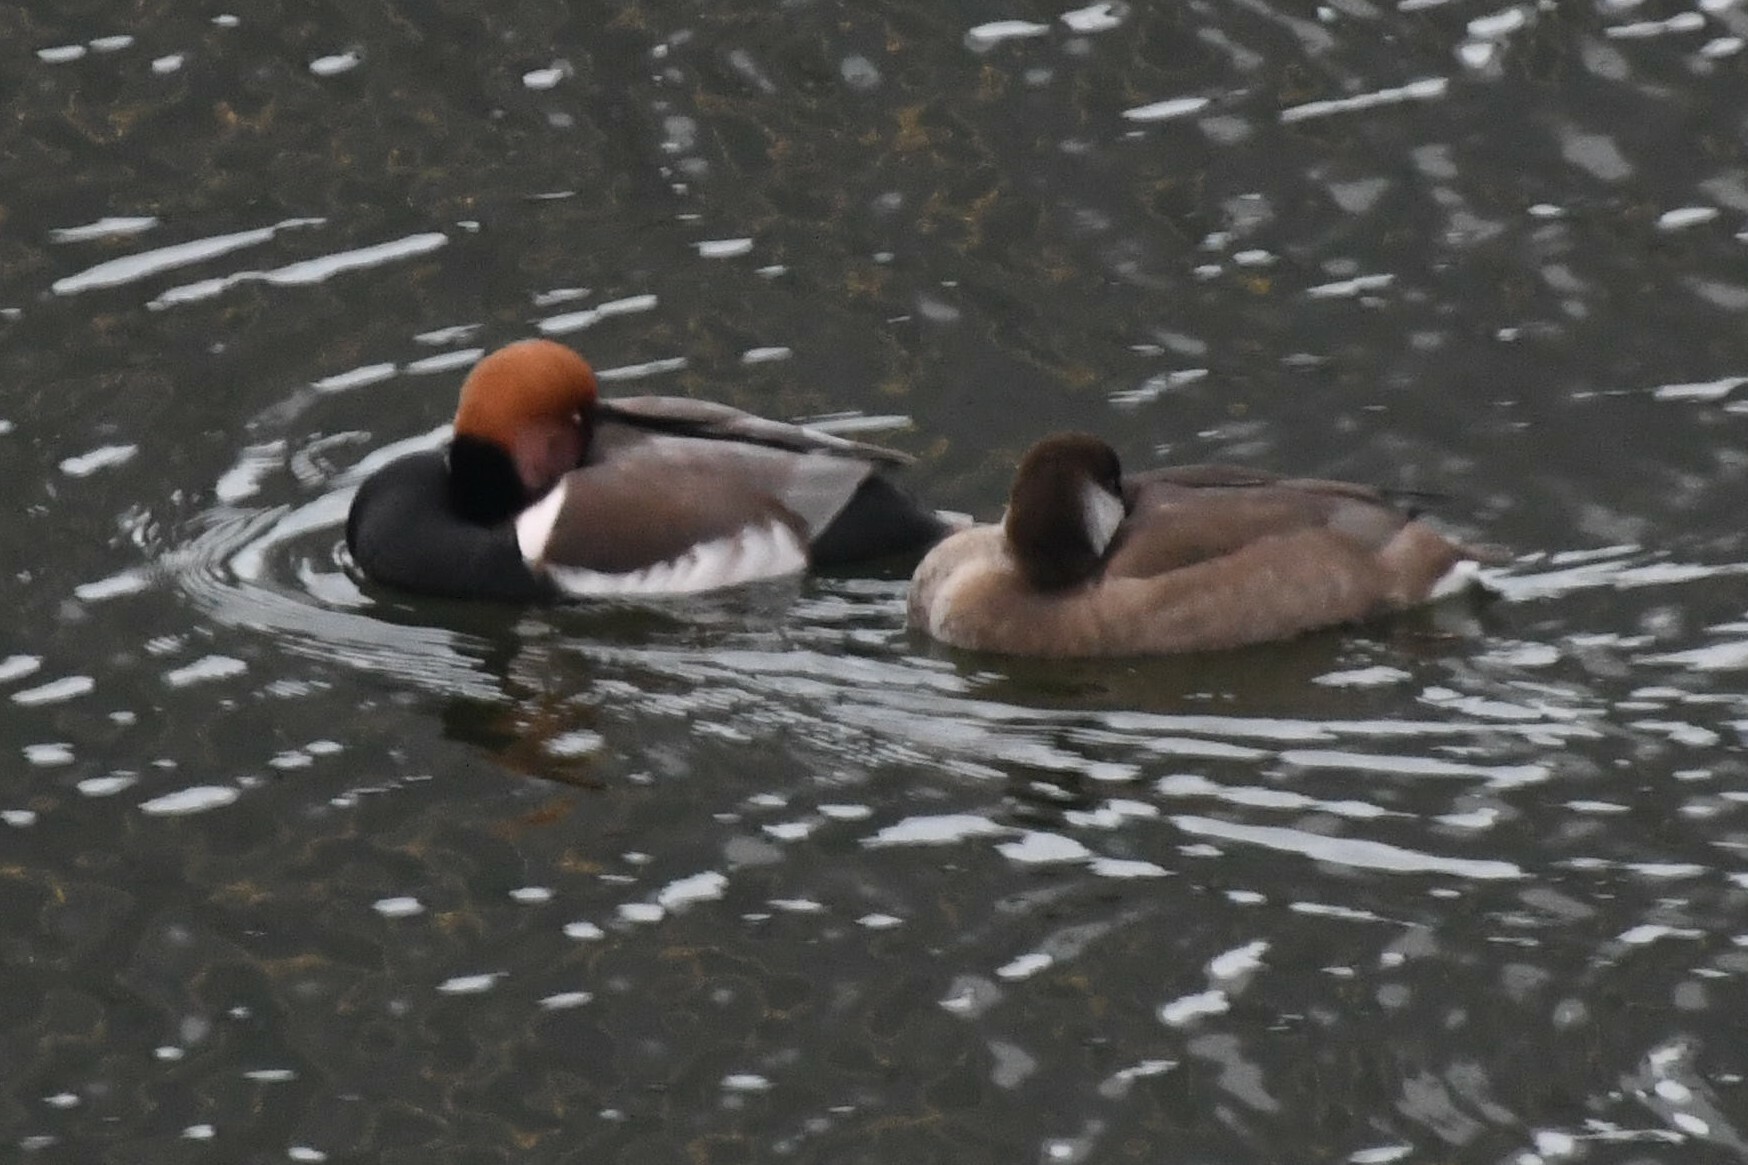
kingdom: Animalia
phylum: Chordata
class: Aves
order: Anseriformes
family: Anatidae
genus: Netta
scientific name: Netta rufina
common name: Red-crested pochard
